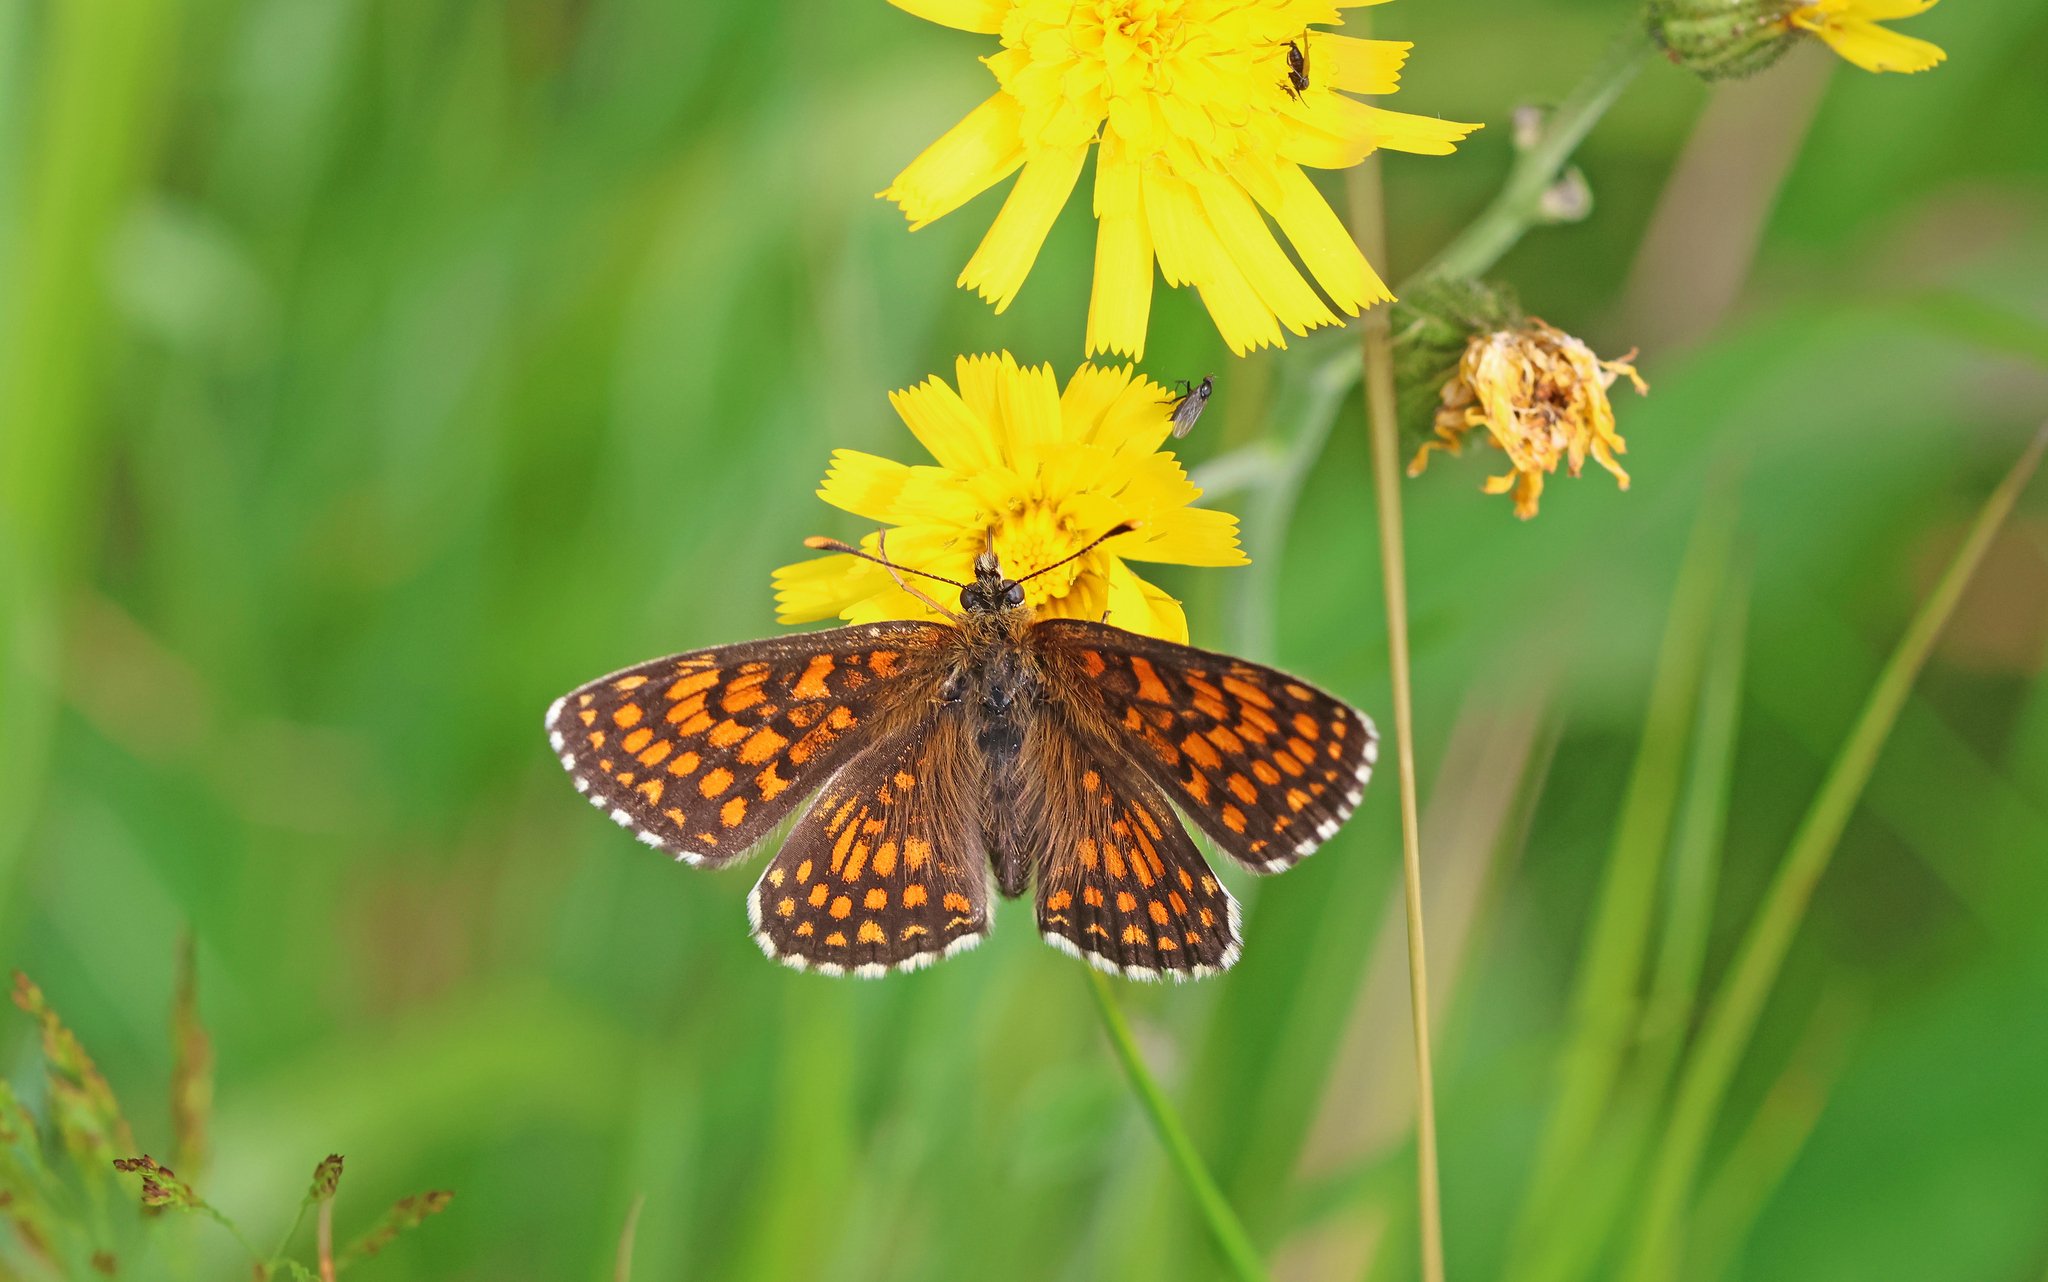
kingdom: Animalia
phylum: Arthropoda
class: Insecta
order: Lepidoptera
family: Nymphalidae
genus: Melitaea
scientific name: Melitaea athalia
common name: Heath fritillary
